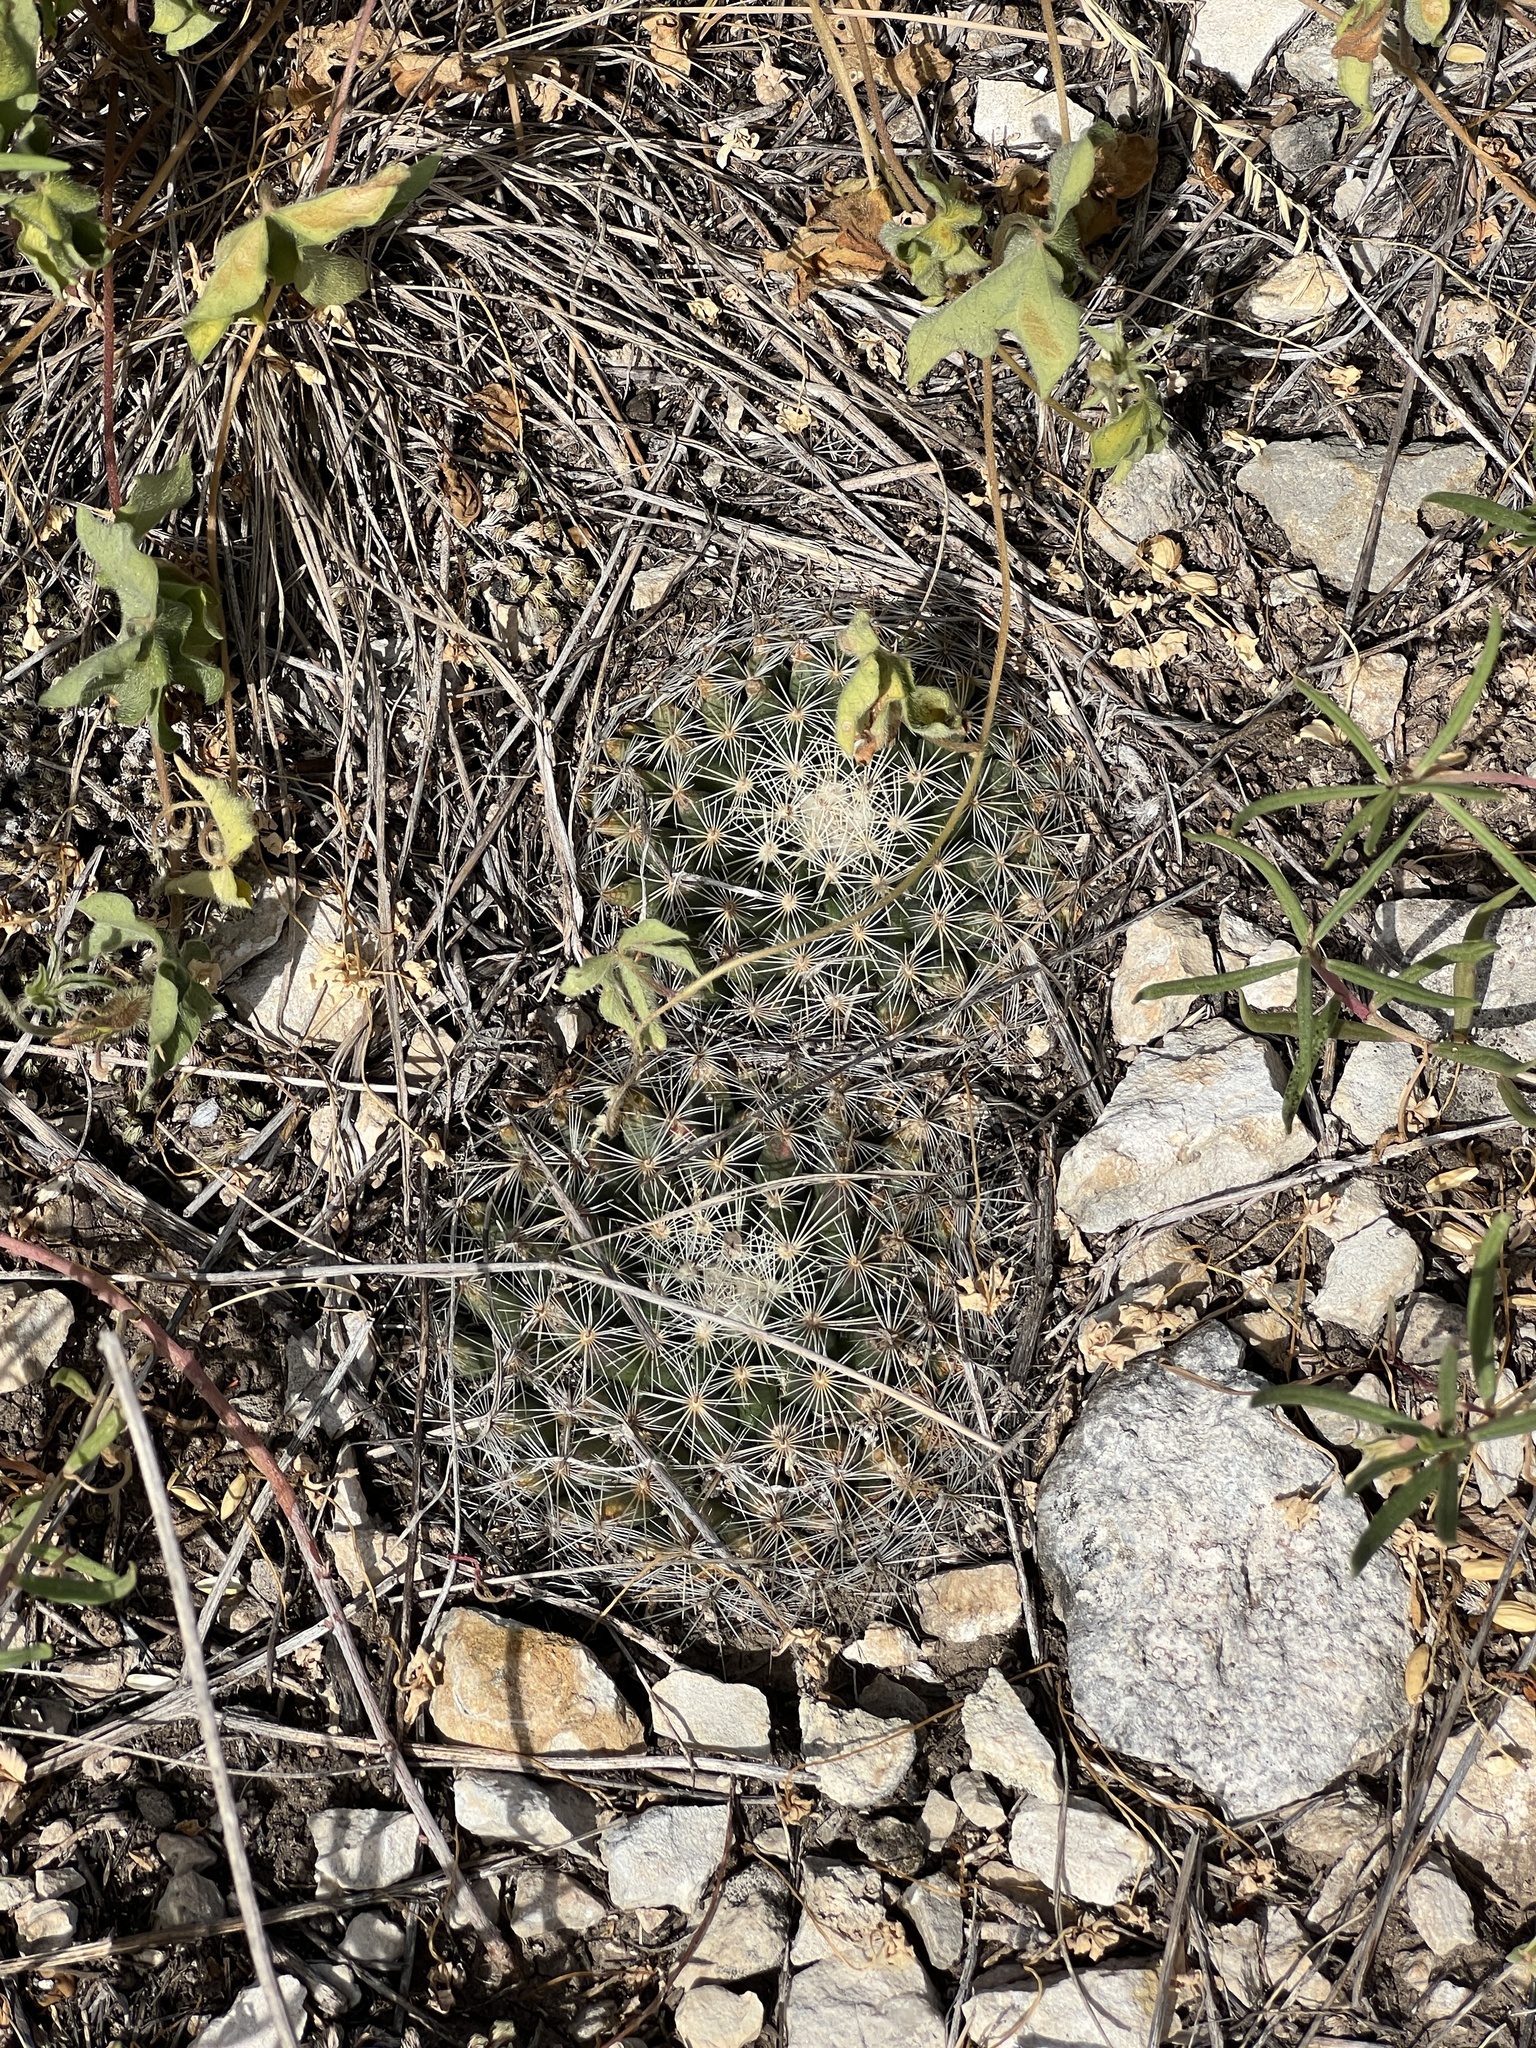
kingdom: Plantae
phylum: Tracheophyta
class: Magnoliopsida
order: Caryophyllales
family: Cactaceae
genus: Mammillaria
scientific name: Mammillaria heyderi
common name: Little nipple cactus
